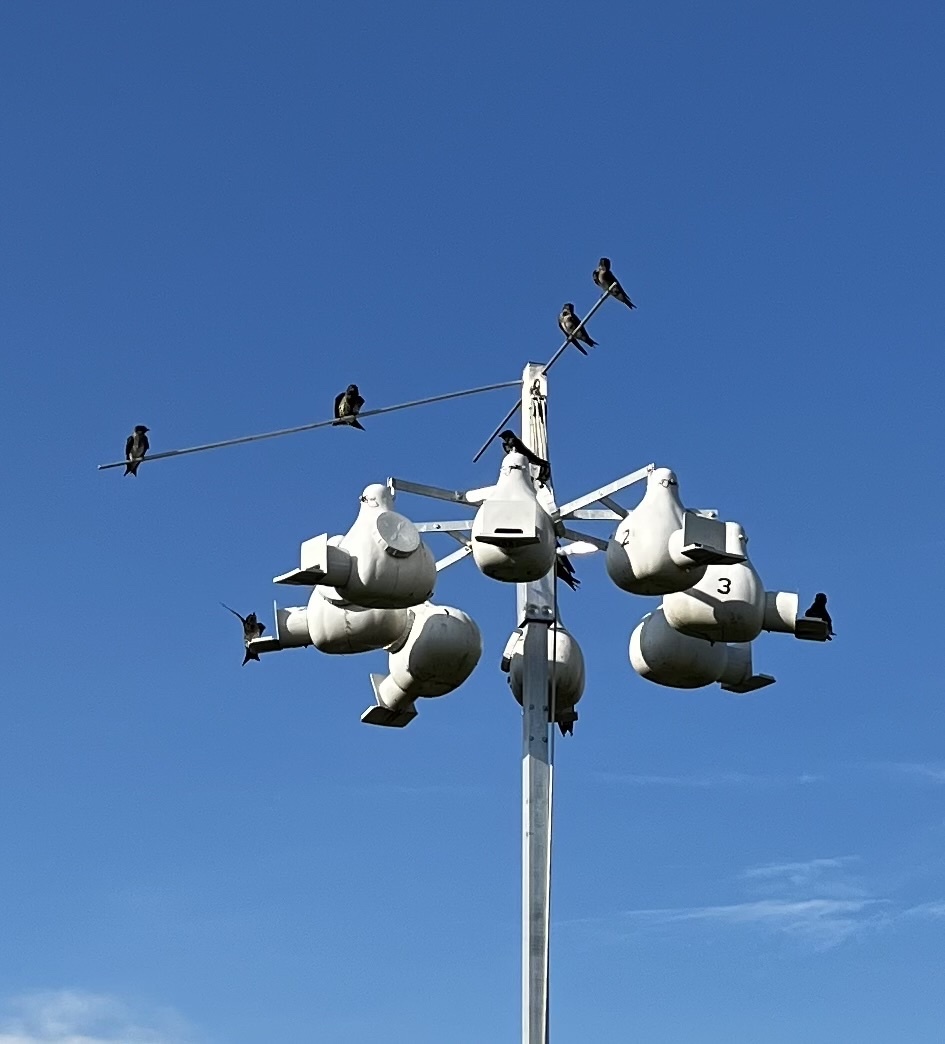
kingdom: Animalia
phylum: Chordata
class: Aves
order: Passeriformes
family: Hirundinidae
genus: Progne
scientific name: Progne subis
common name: Purple martin
